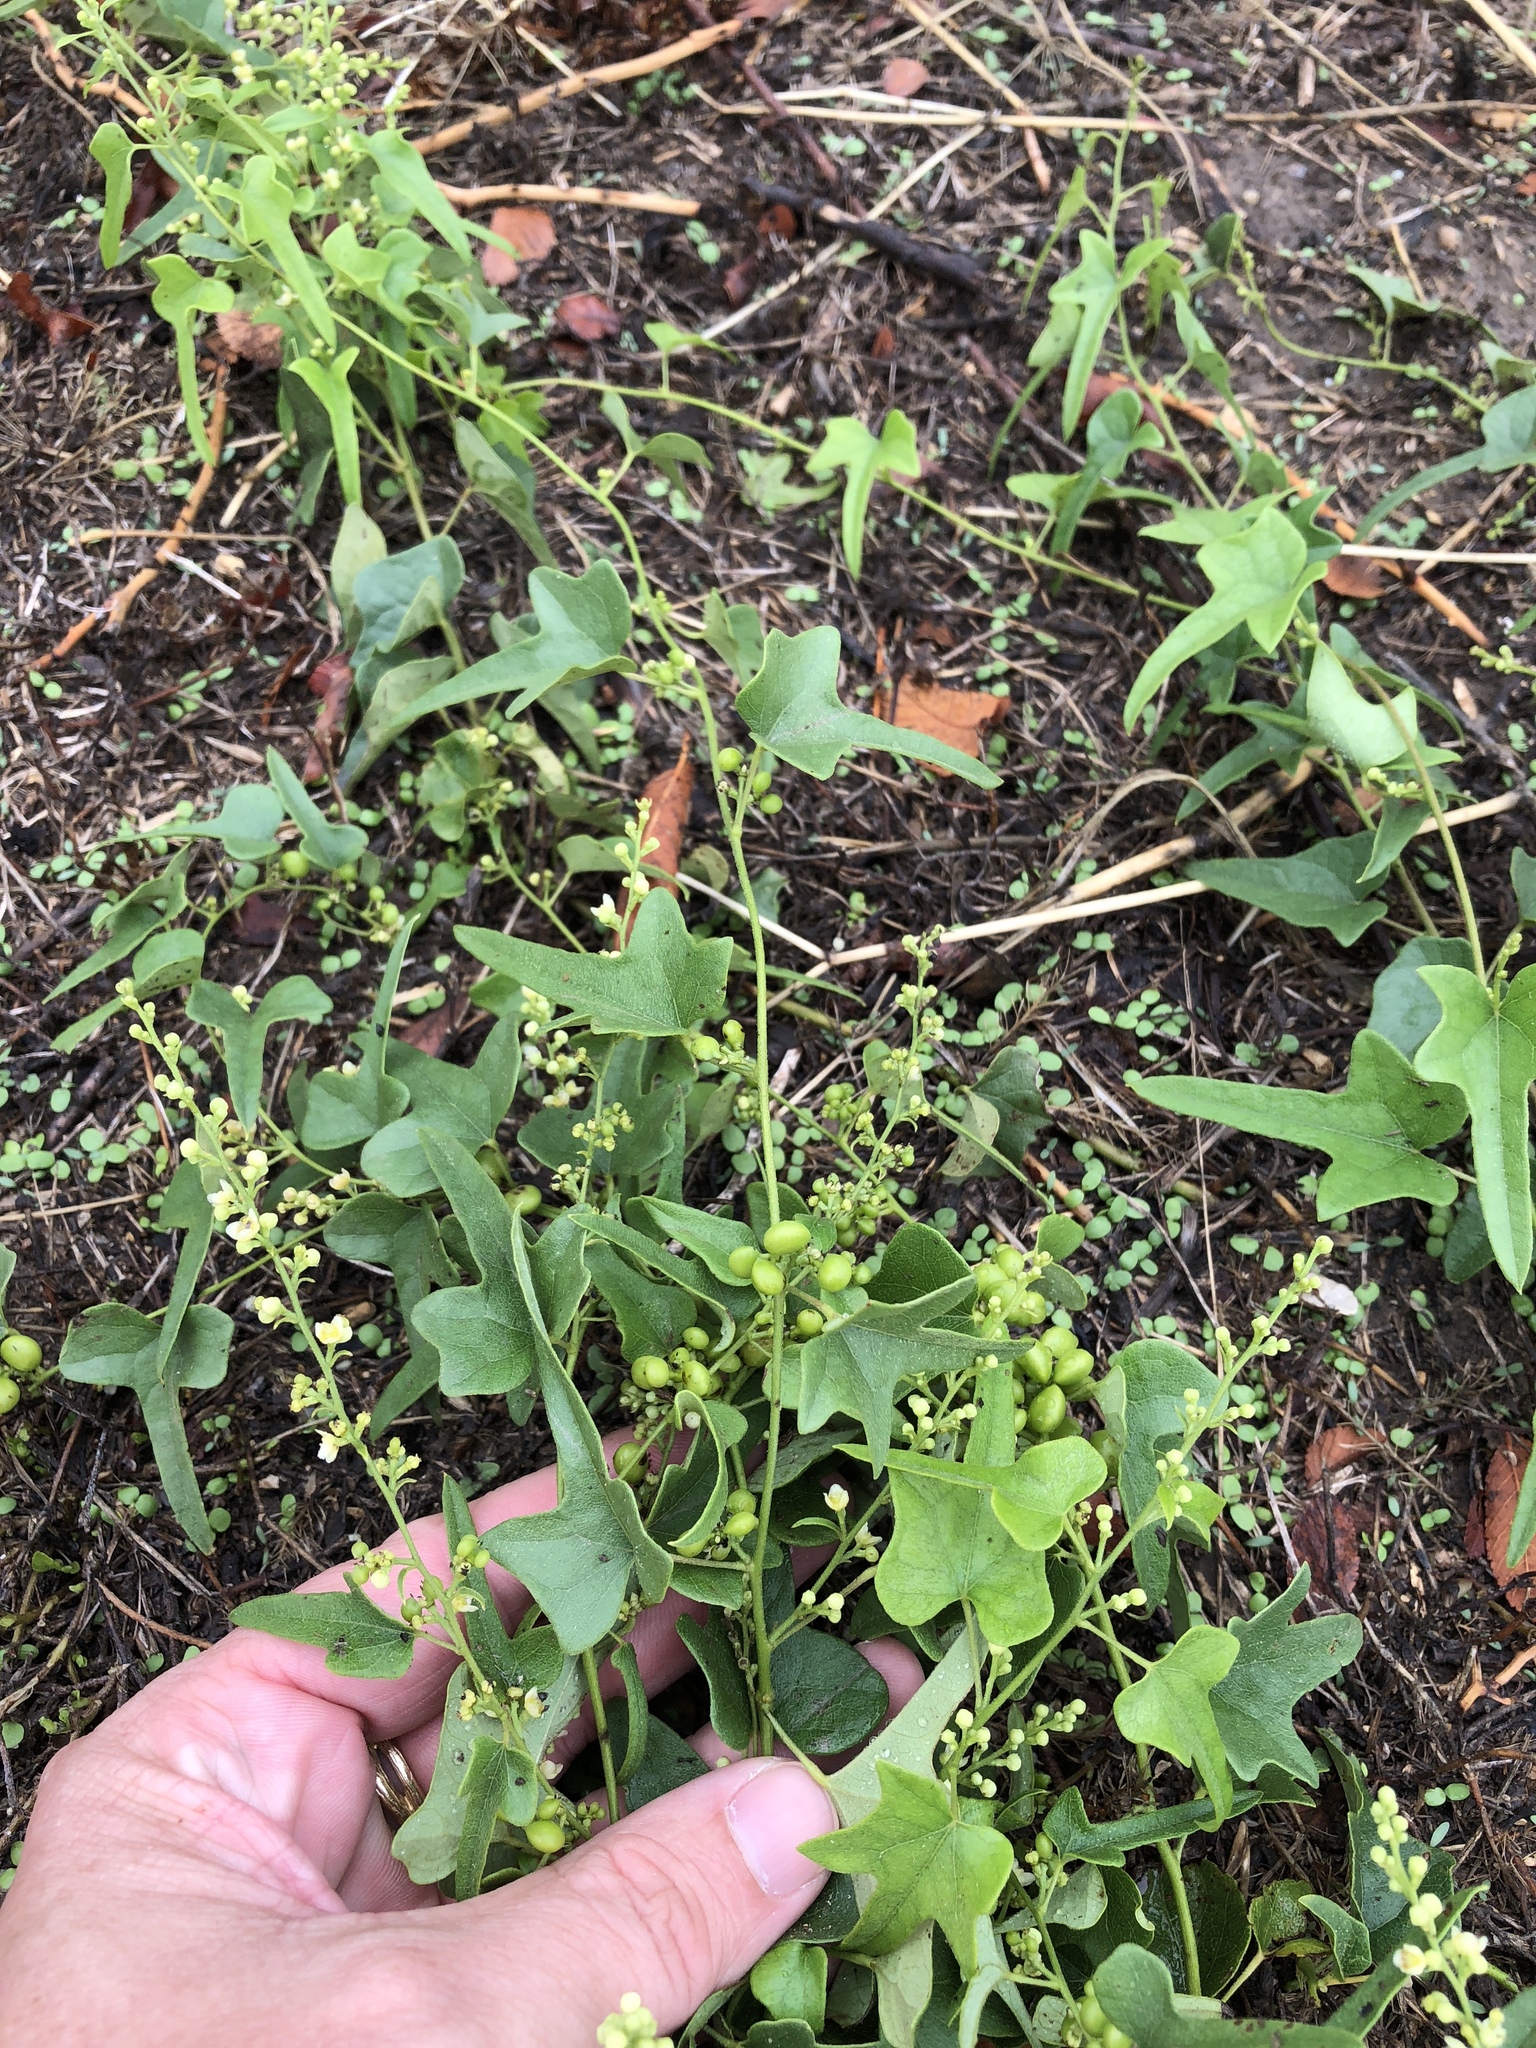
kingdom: Plantae
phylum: Tracheophyta
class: Magnoliopsida
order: Ranunculales
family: Menispermaceae
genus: Cocculus
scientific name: Cocculus carolinus
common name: Carolina moonseed
